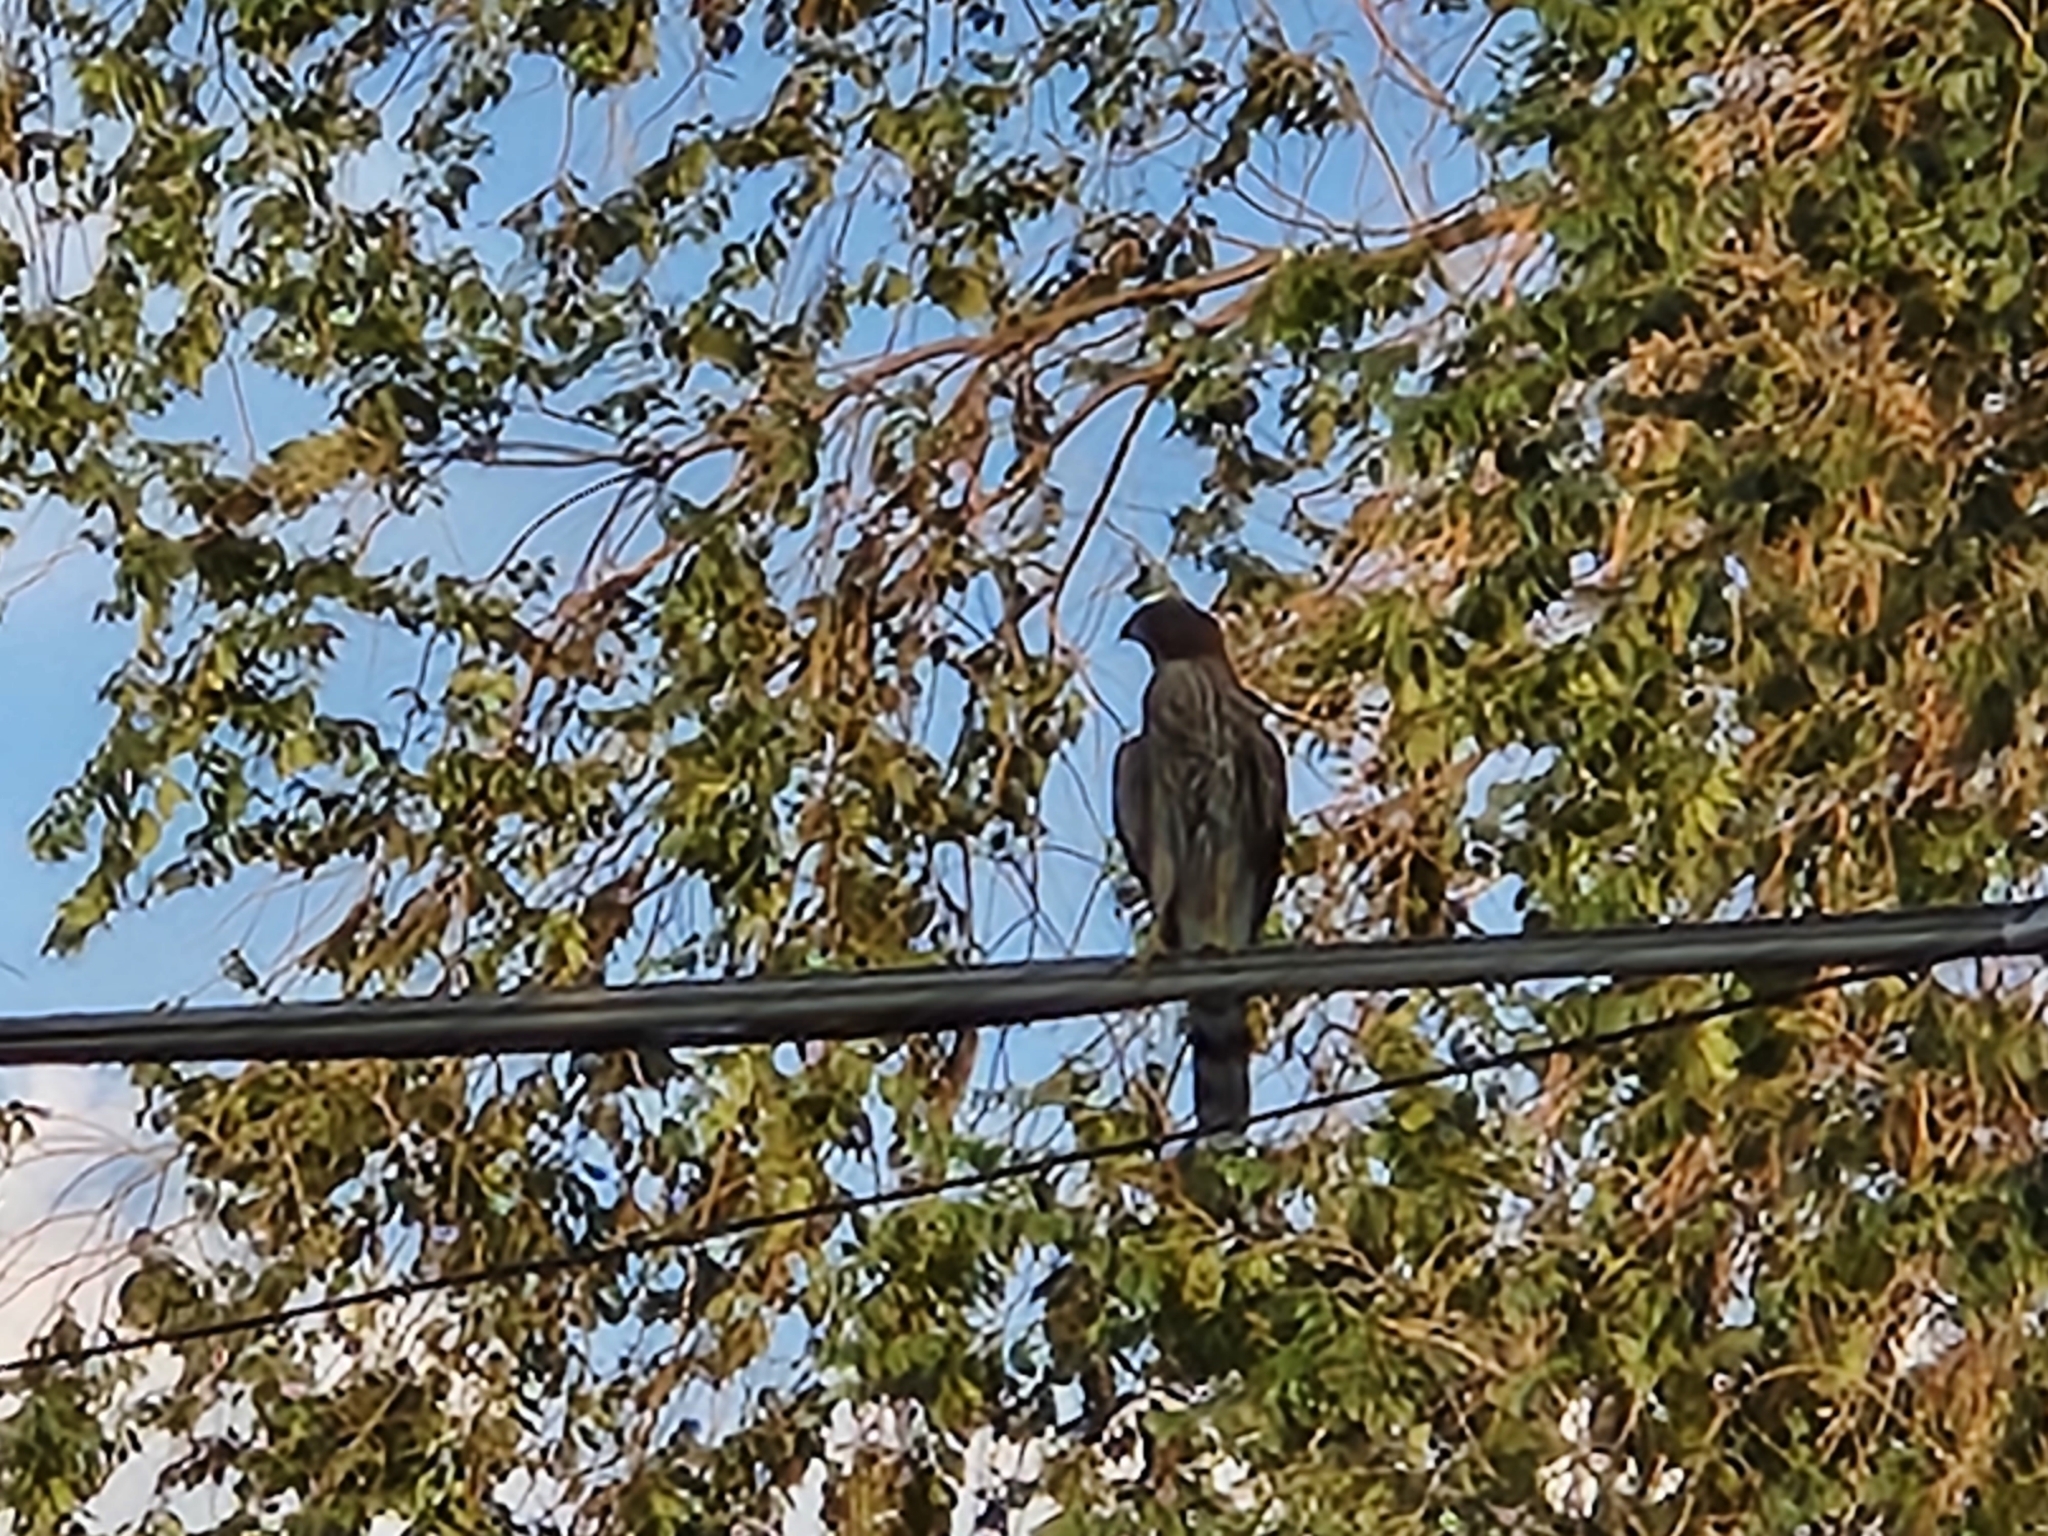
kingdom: Animalia
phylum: Chordata
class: Aves
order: Accipitriformes
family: Accipitridae
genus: Accipiter
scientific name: Accipiter cooperii
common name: Cooper's hawk
